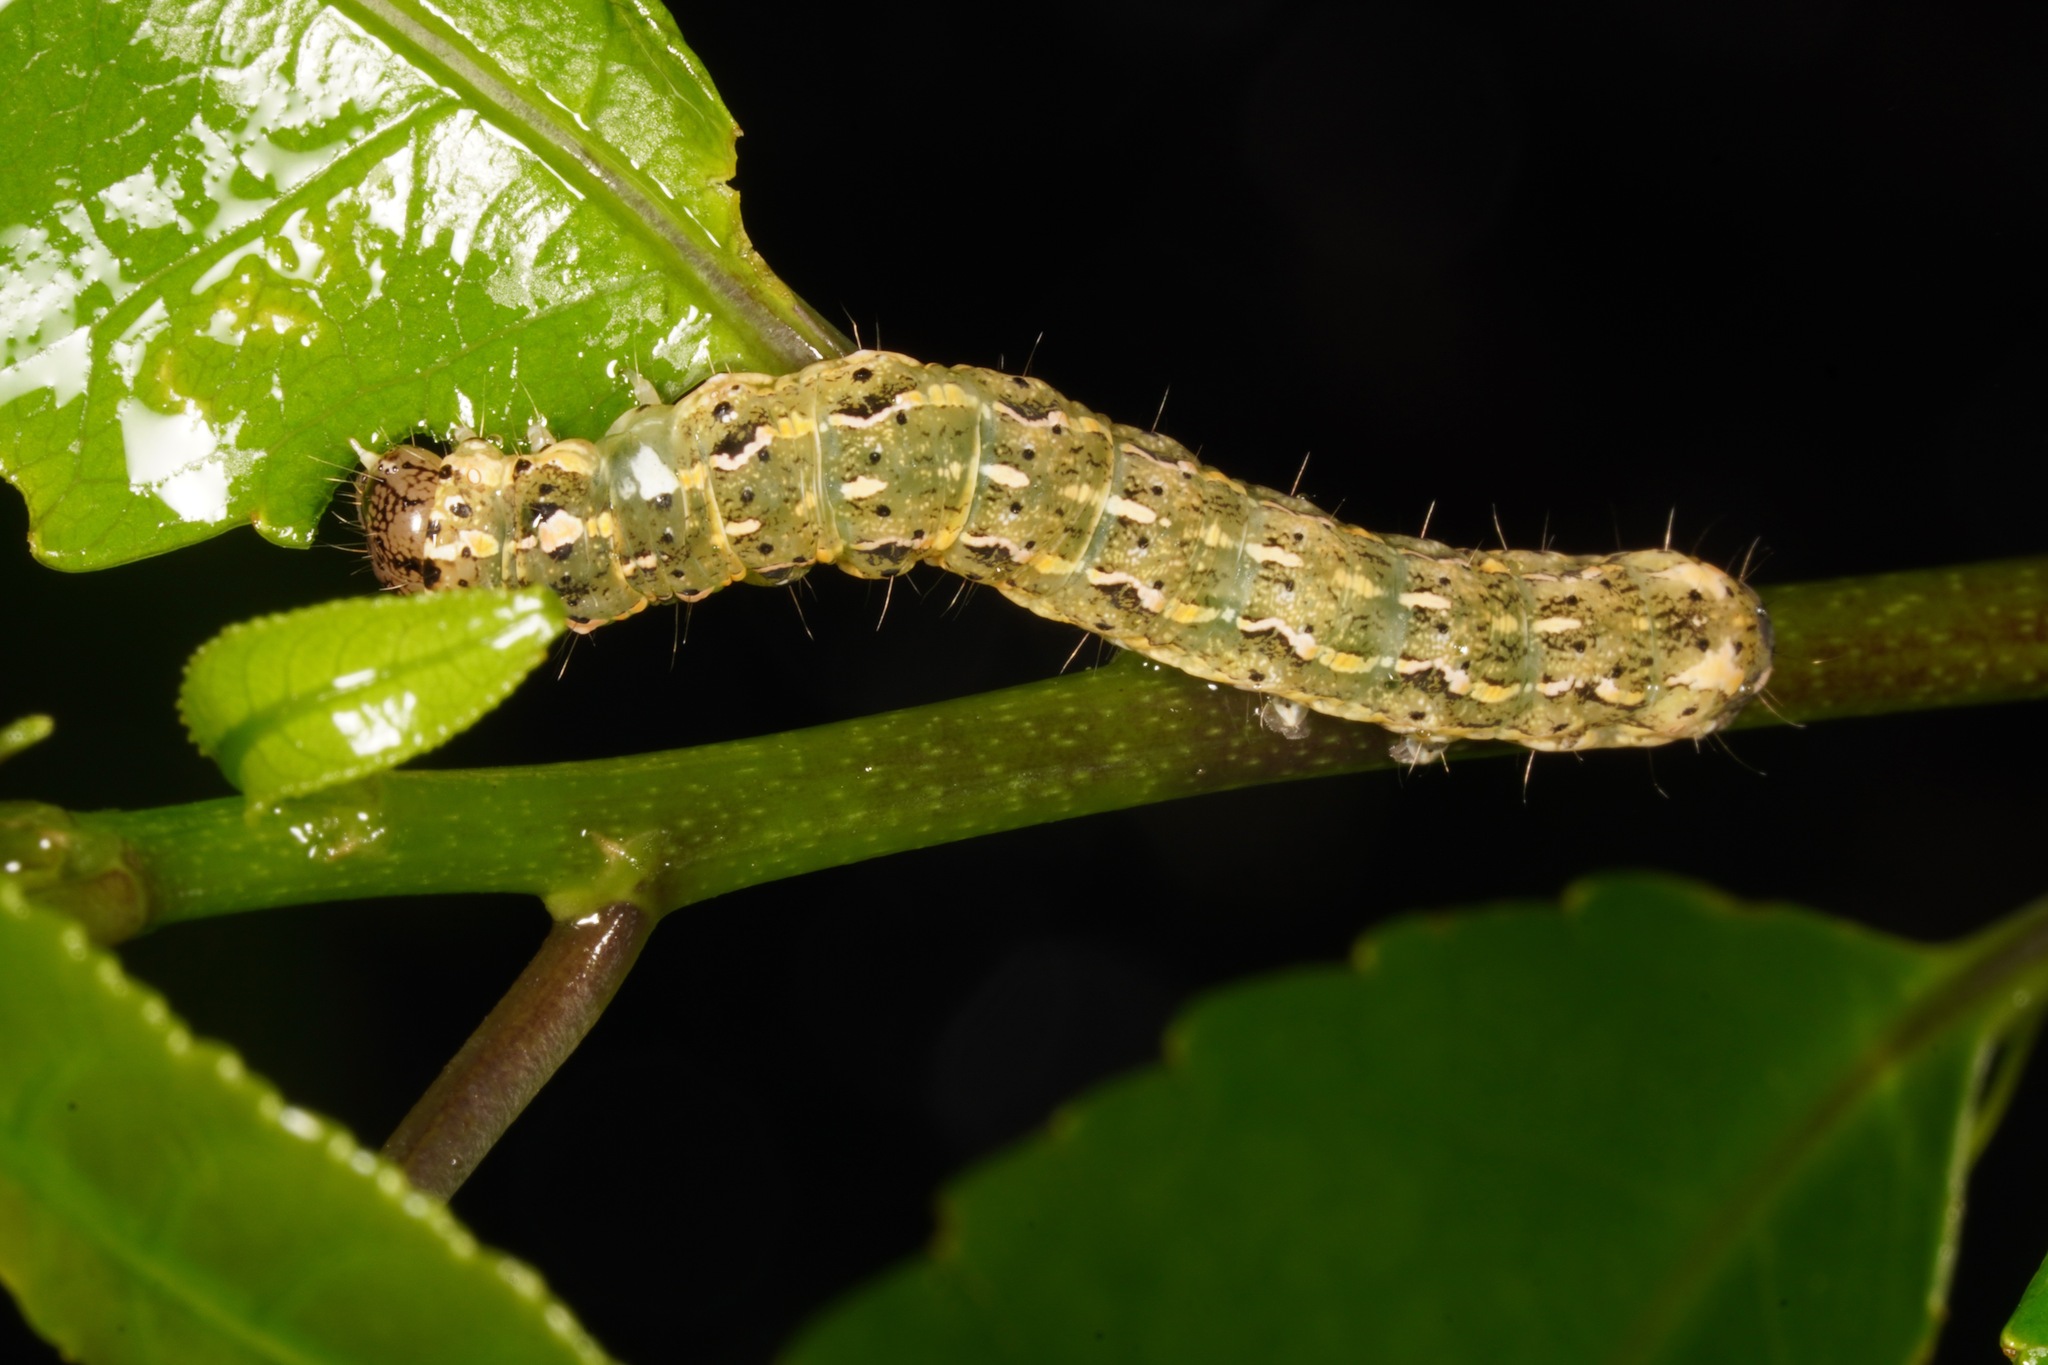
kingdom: Animalia
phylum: Arthropoda
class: Insecta
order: Lepidoptera
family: Noctuidae
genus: Feredayia
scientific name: Feredayia grammosa
